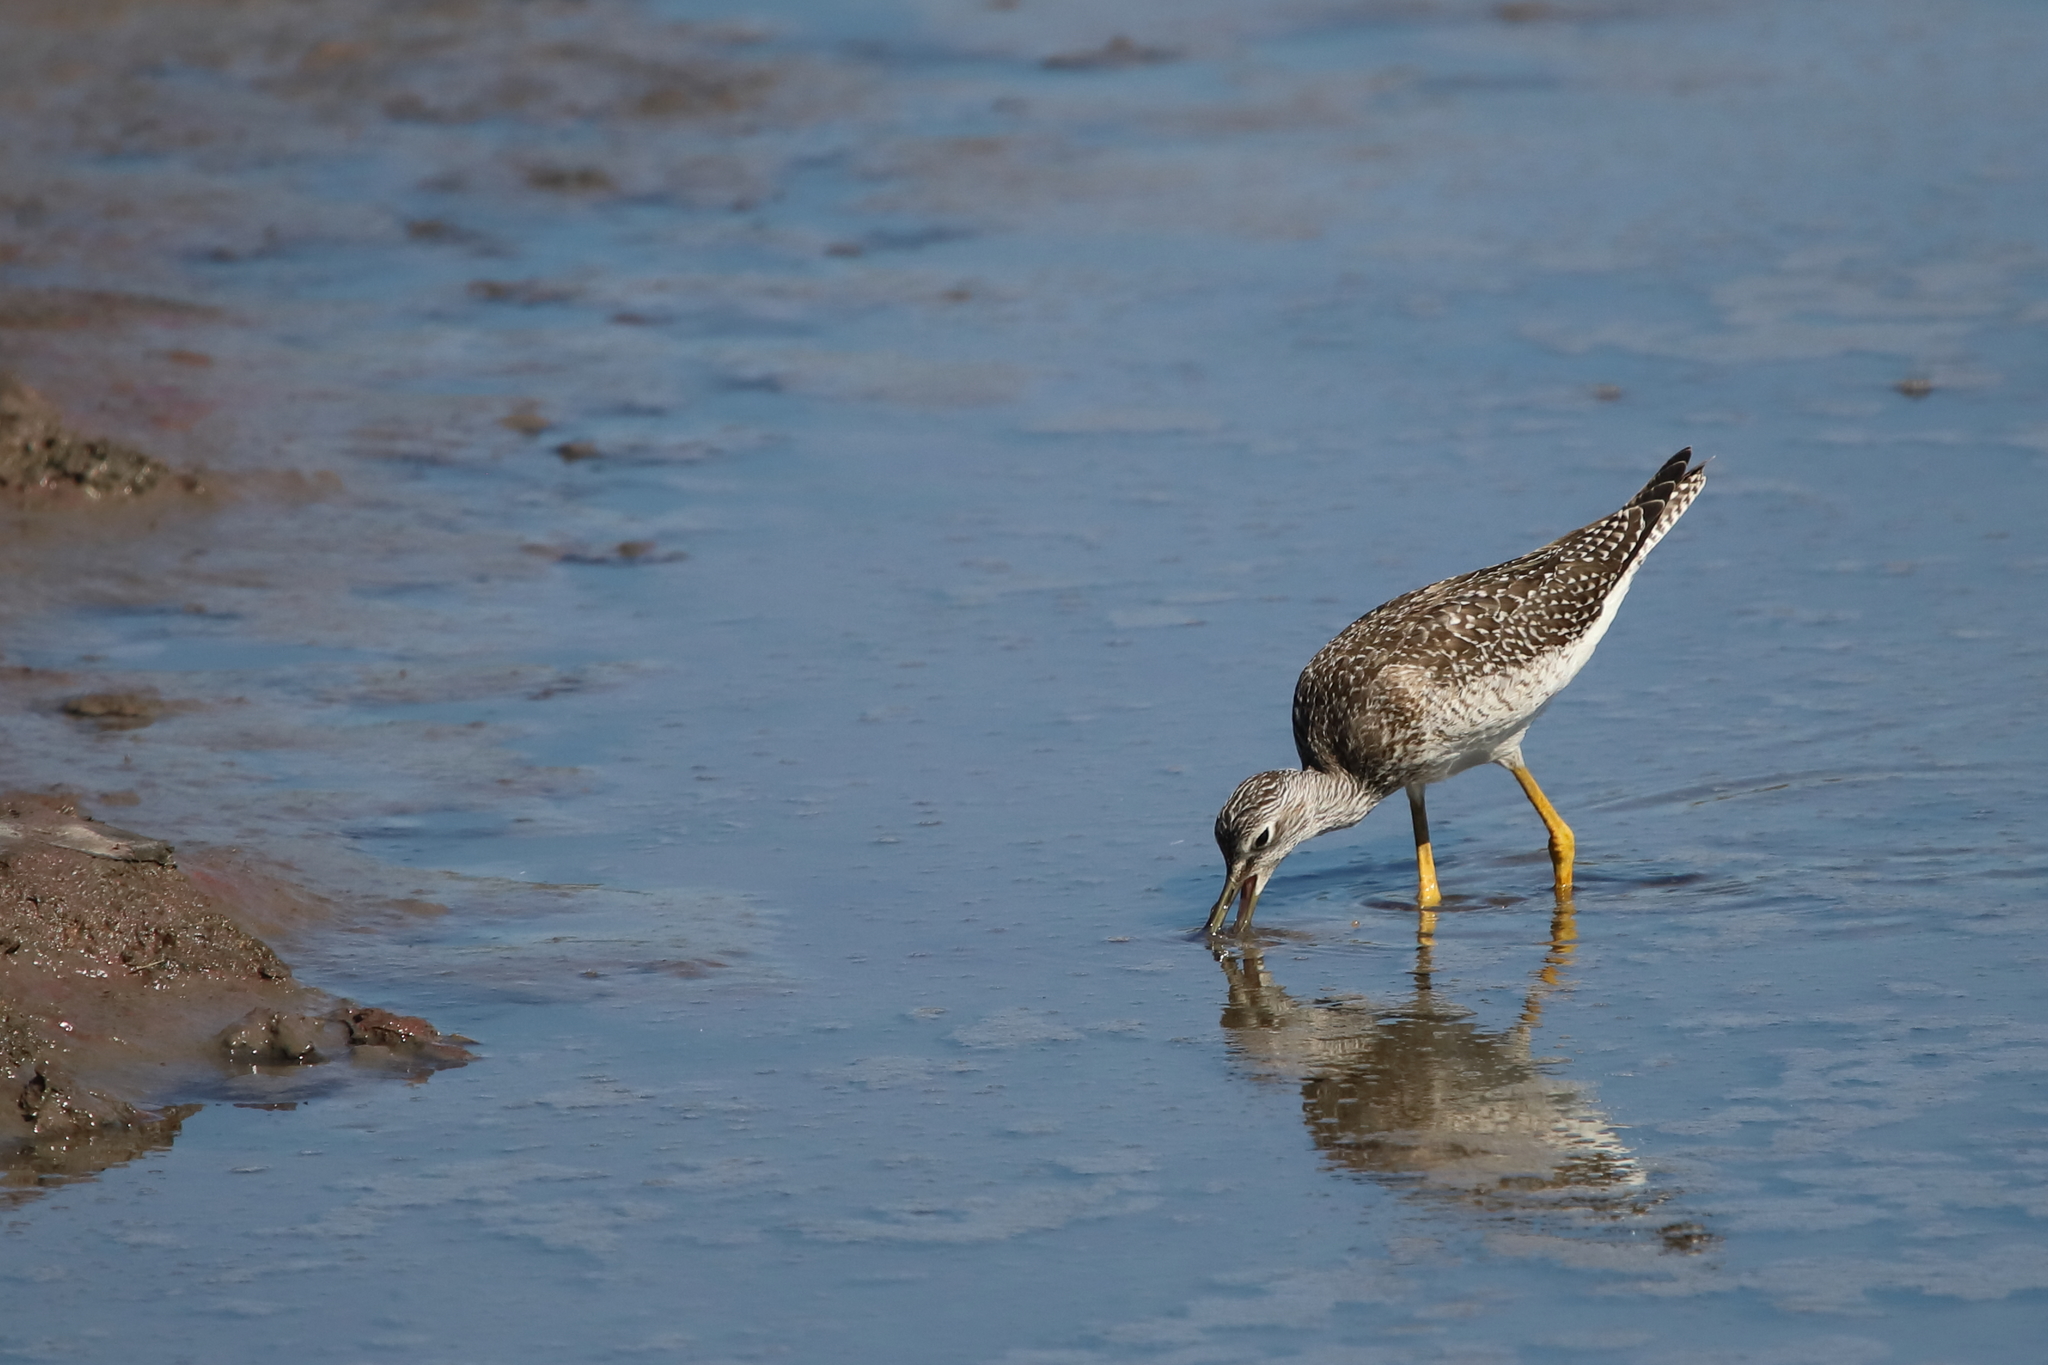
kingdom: Animalia
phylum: Chordata
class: Aves
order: Charadriiformes
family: Scolopacidae
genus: Tringa
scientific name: Tringa melanoleuca
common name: Greater yellowlegs
